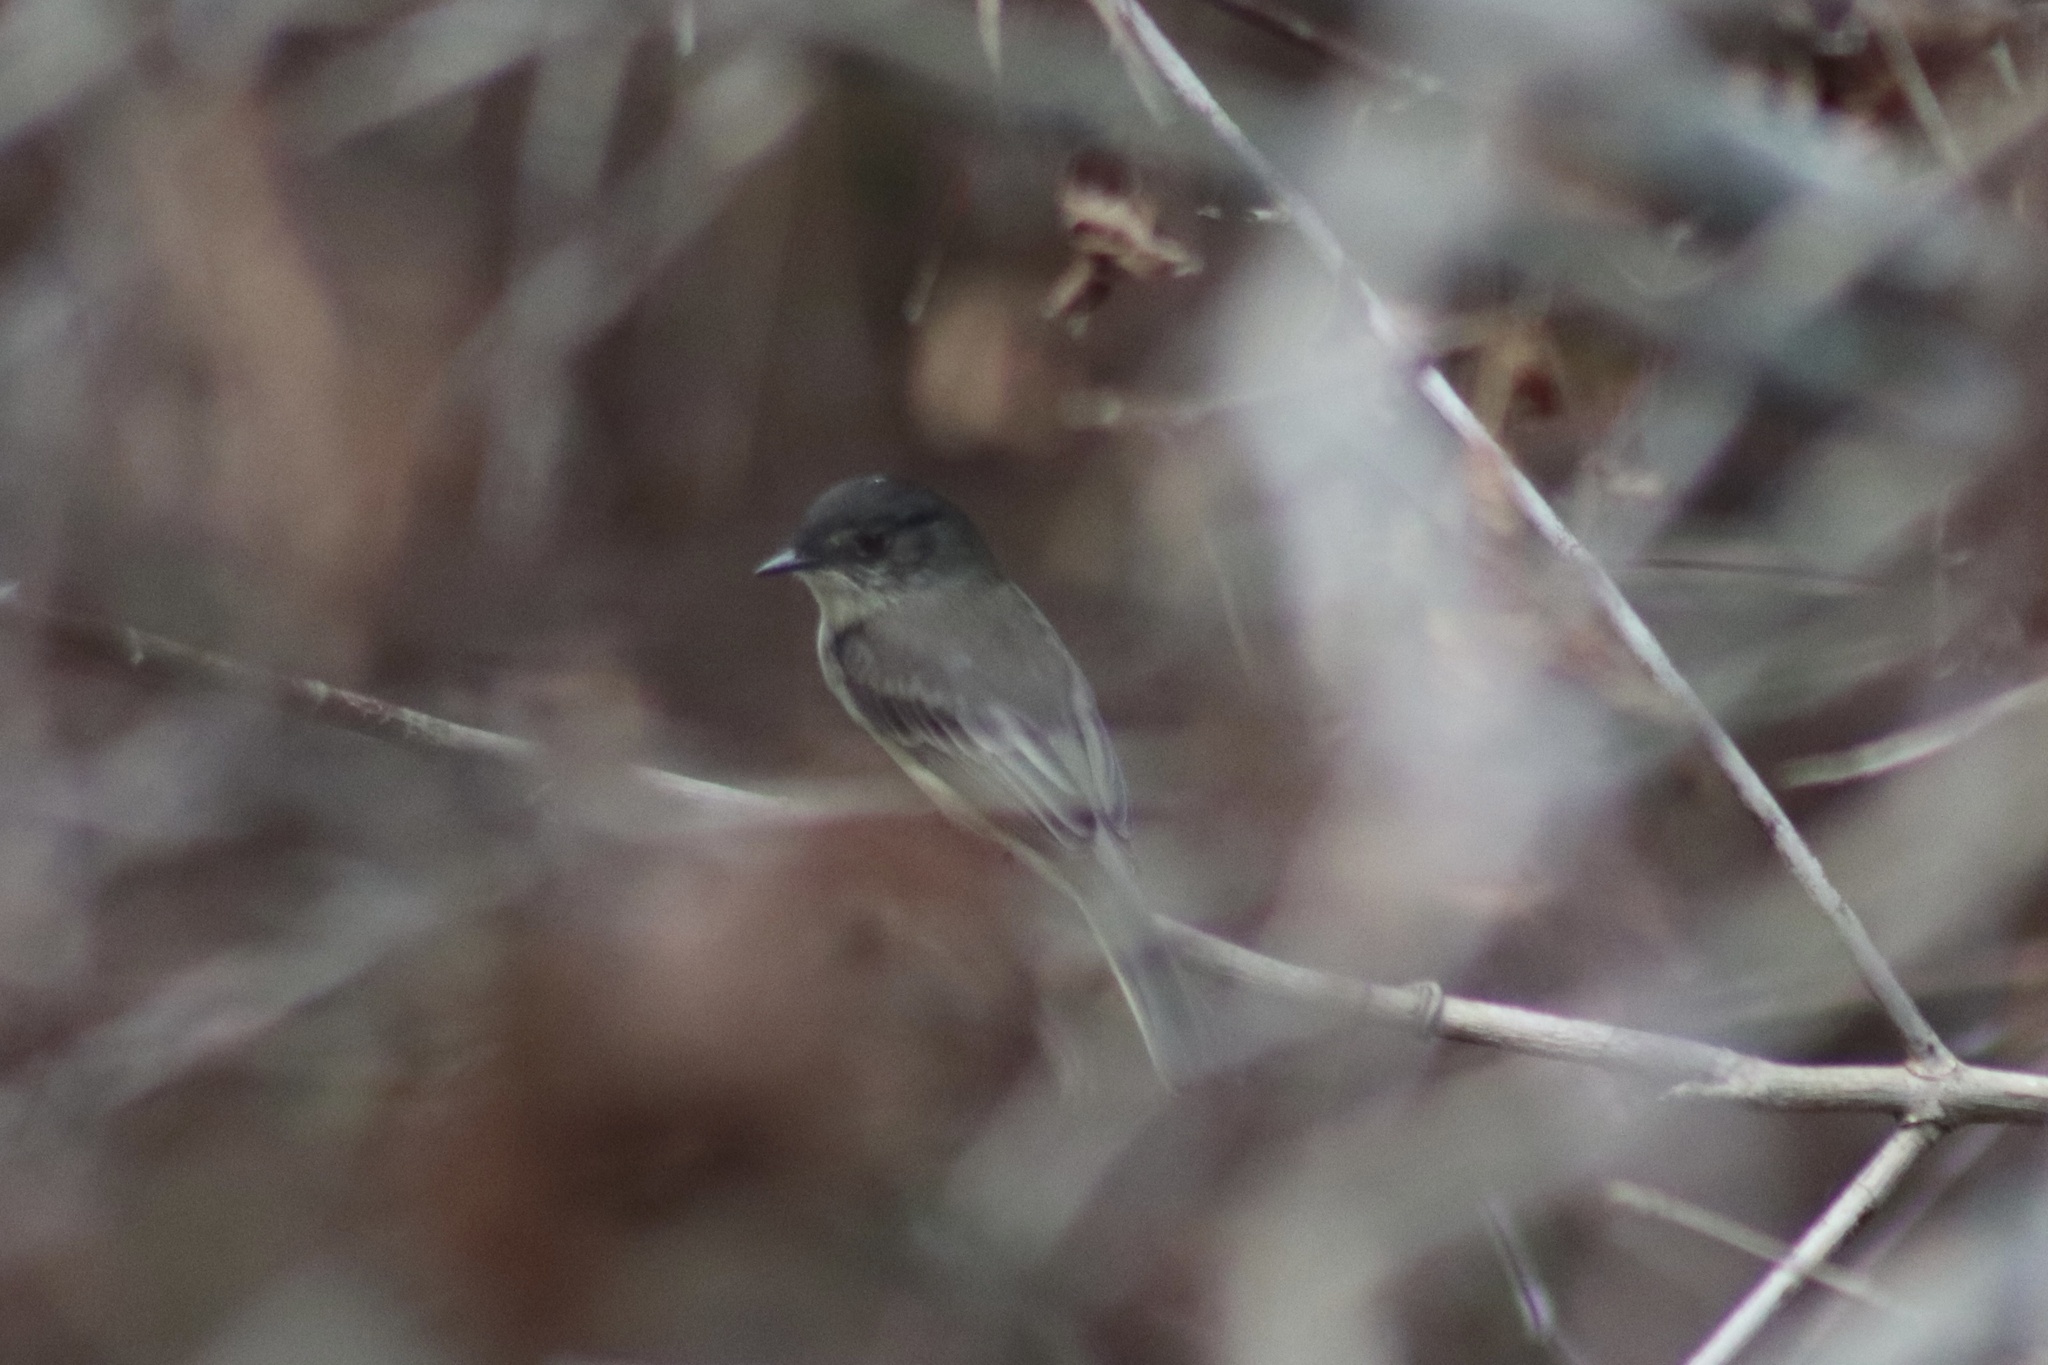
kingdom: Animalia
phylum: Chordata
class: Aves
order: Passeriformes
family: Tyrannidae
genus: Sayornis
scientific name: Sayornis phoebe
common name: Eastern phoebe
